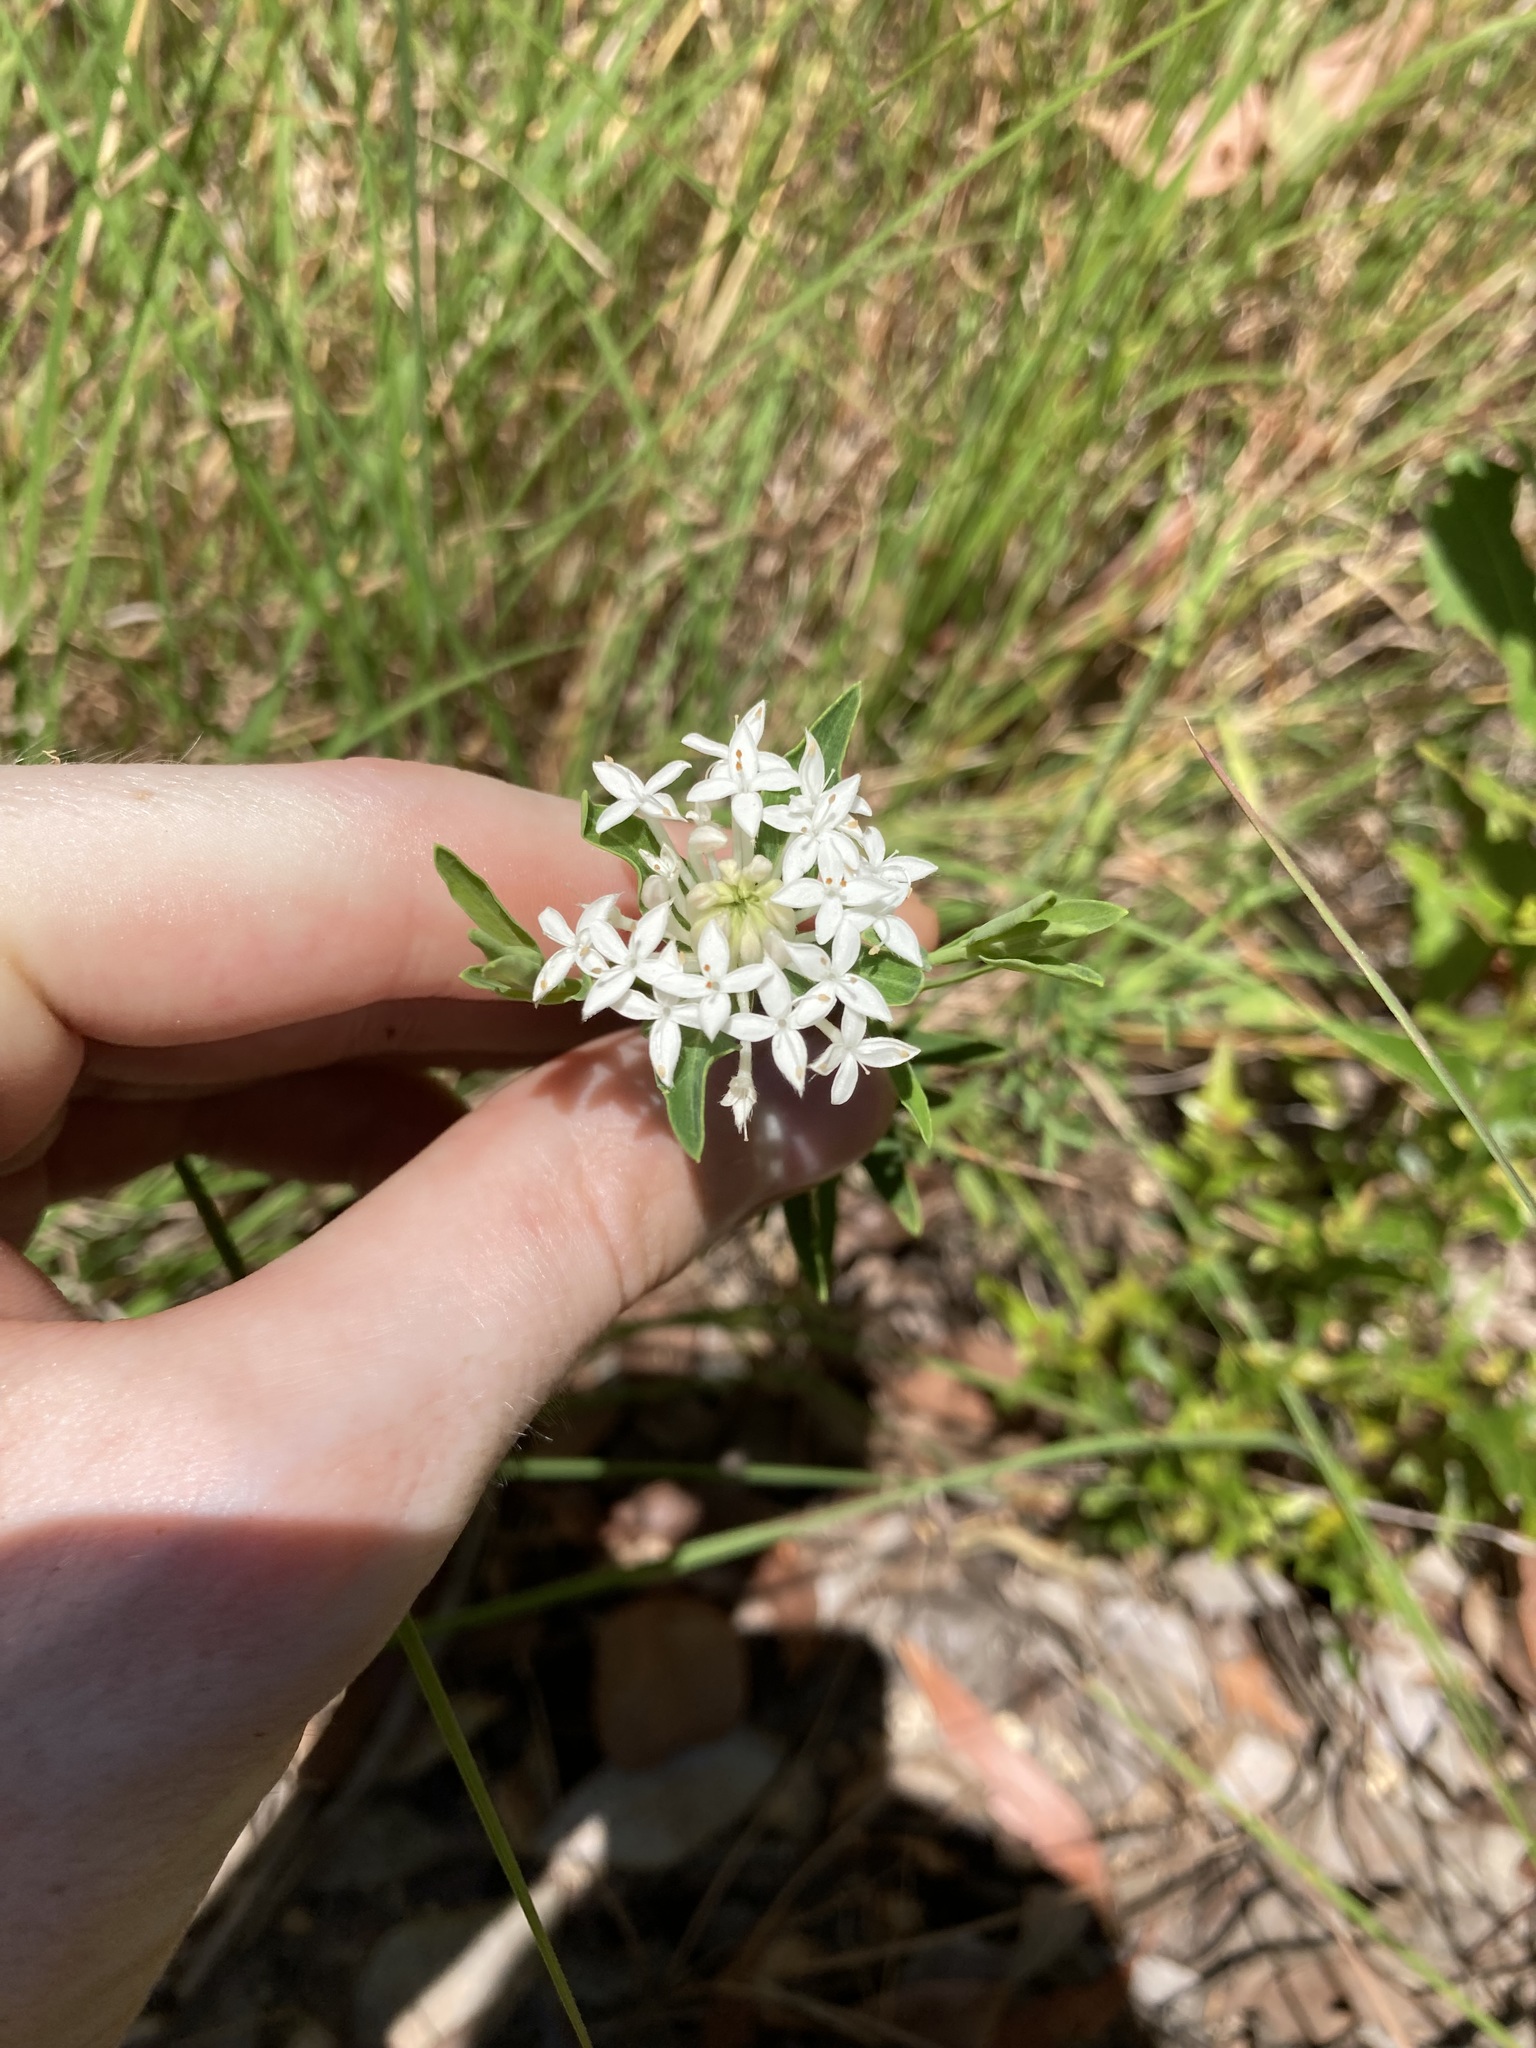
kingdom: Plantae
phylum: Tracheophyta
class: Magnoliopsida
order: Malvales
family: Thymelaeaceae
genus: Pimelea
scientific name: Pimelea linifolia
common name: Queen-of-the-bush
